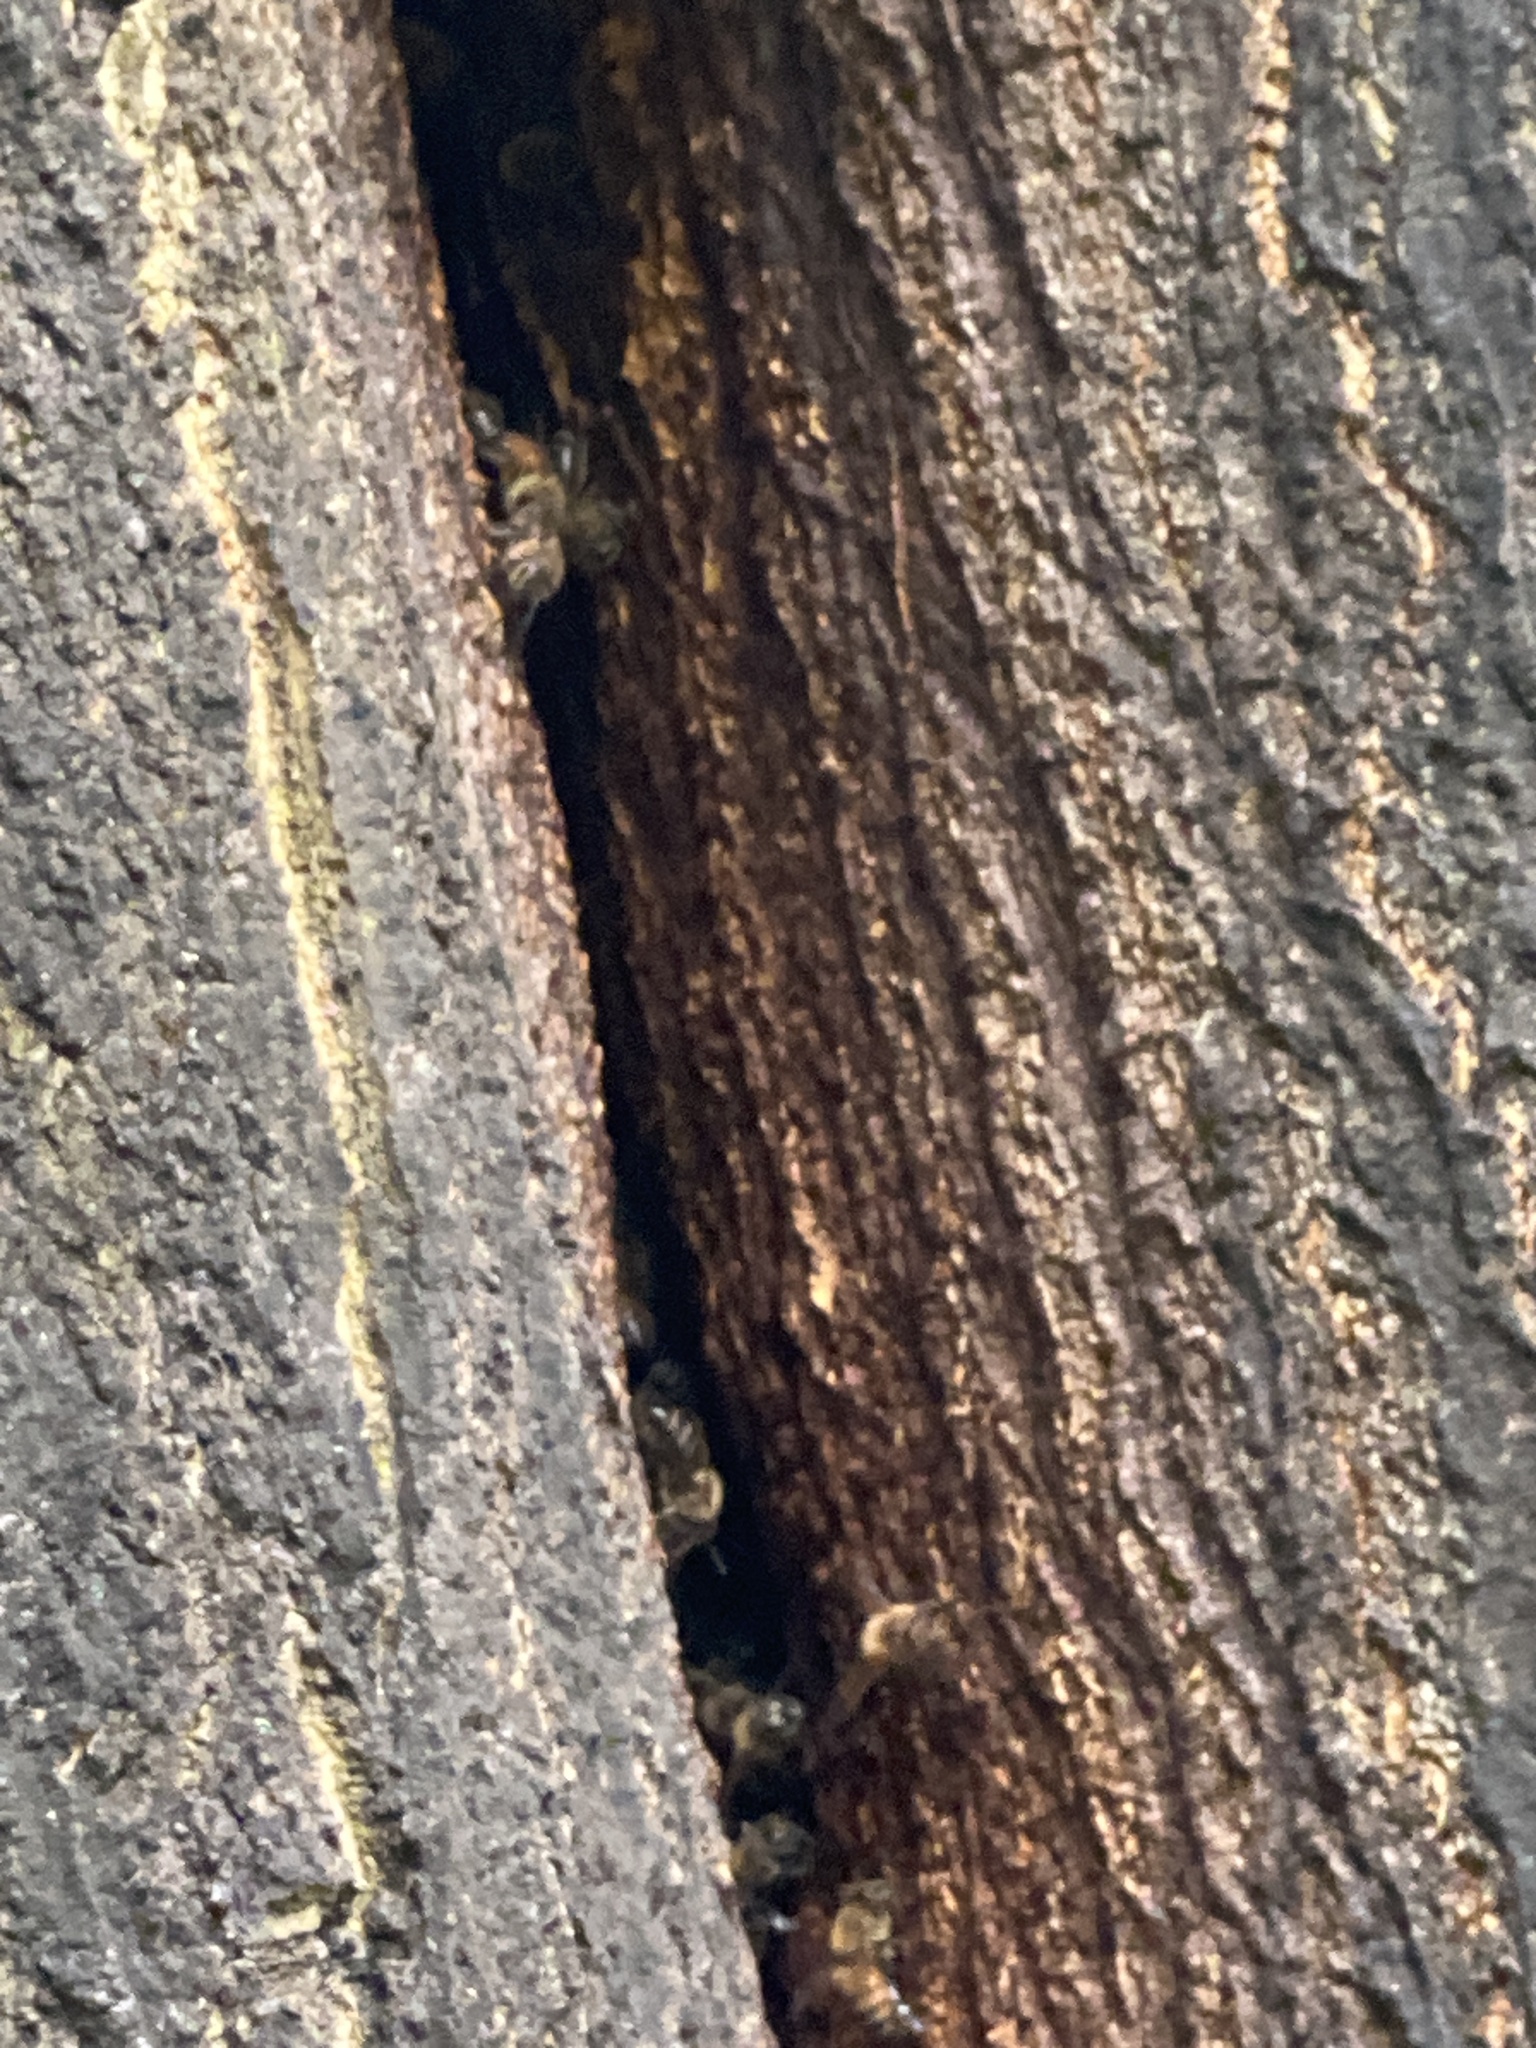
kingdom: Animalia
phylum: Arthropoda
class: Insecta
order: Hymenoptera
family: Apidae
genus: Apis
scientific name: Apis mellifera
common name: Honey bee
